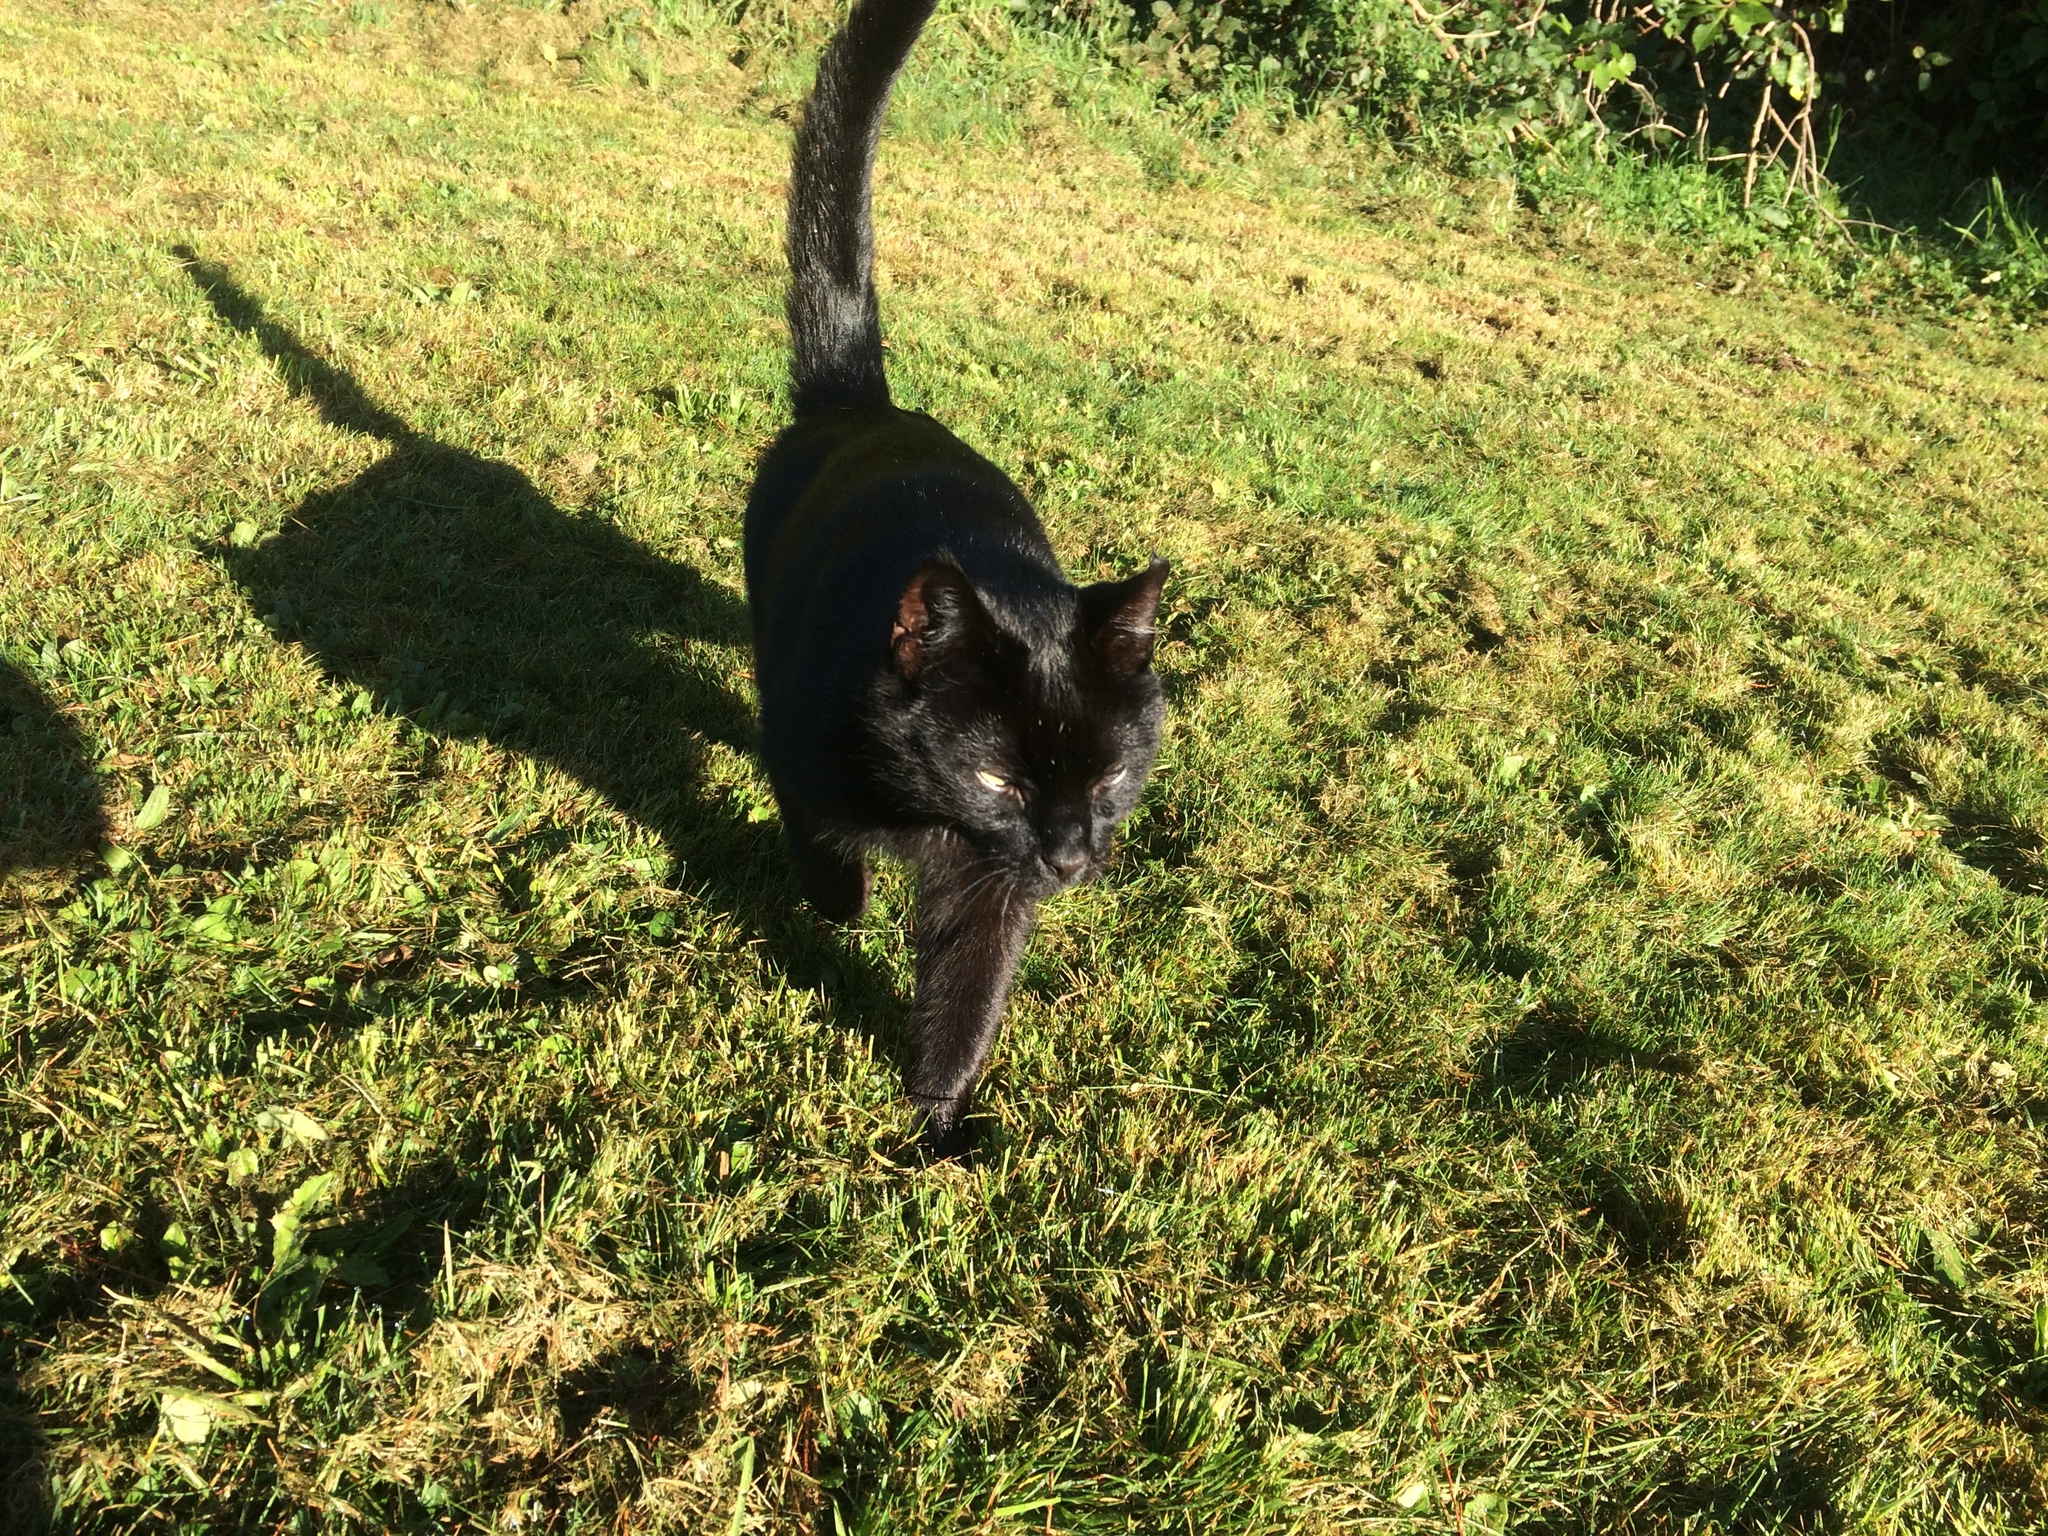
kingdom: Animalia
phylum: Chordata
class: Mammalia
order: Carnivora
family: Felidae
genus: Felis
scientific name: Felis catus
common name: Domestic cat
